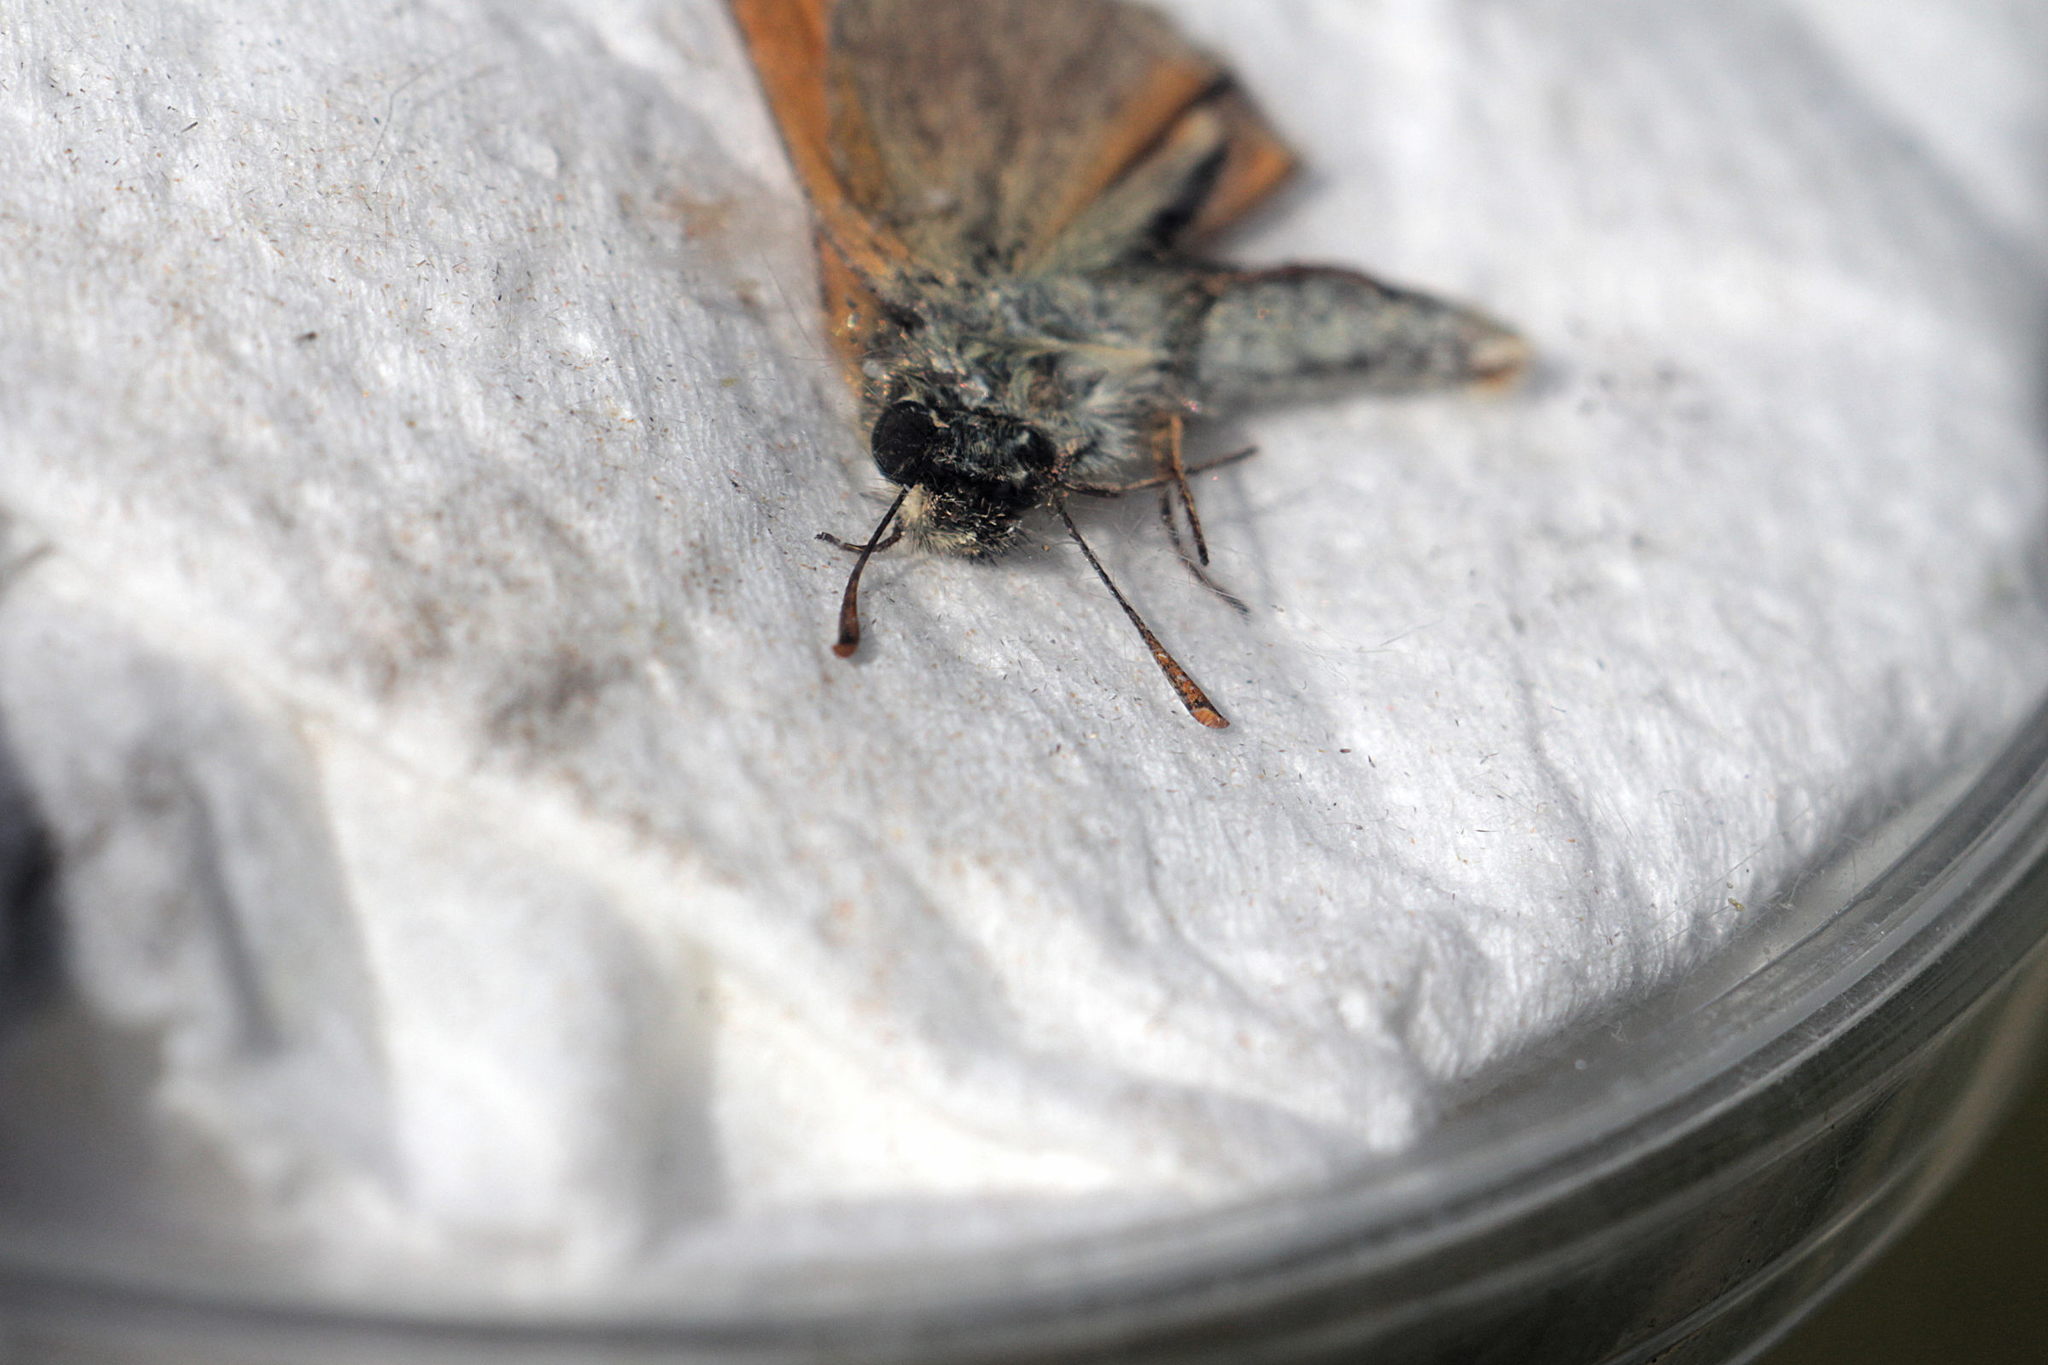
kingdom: Animalia
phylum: Arthropoda
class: Insecta
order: Lepidoptera
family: Hesperiidae
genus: Thymelicus
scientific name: Thymelicus sylvestris
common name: Small skipper
